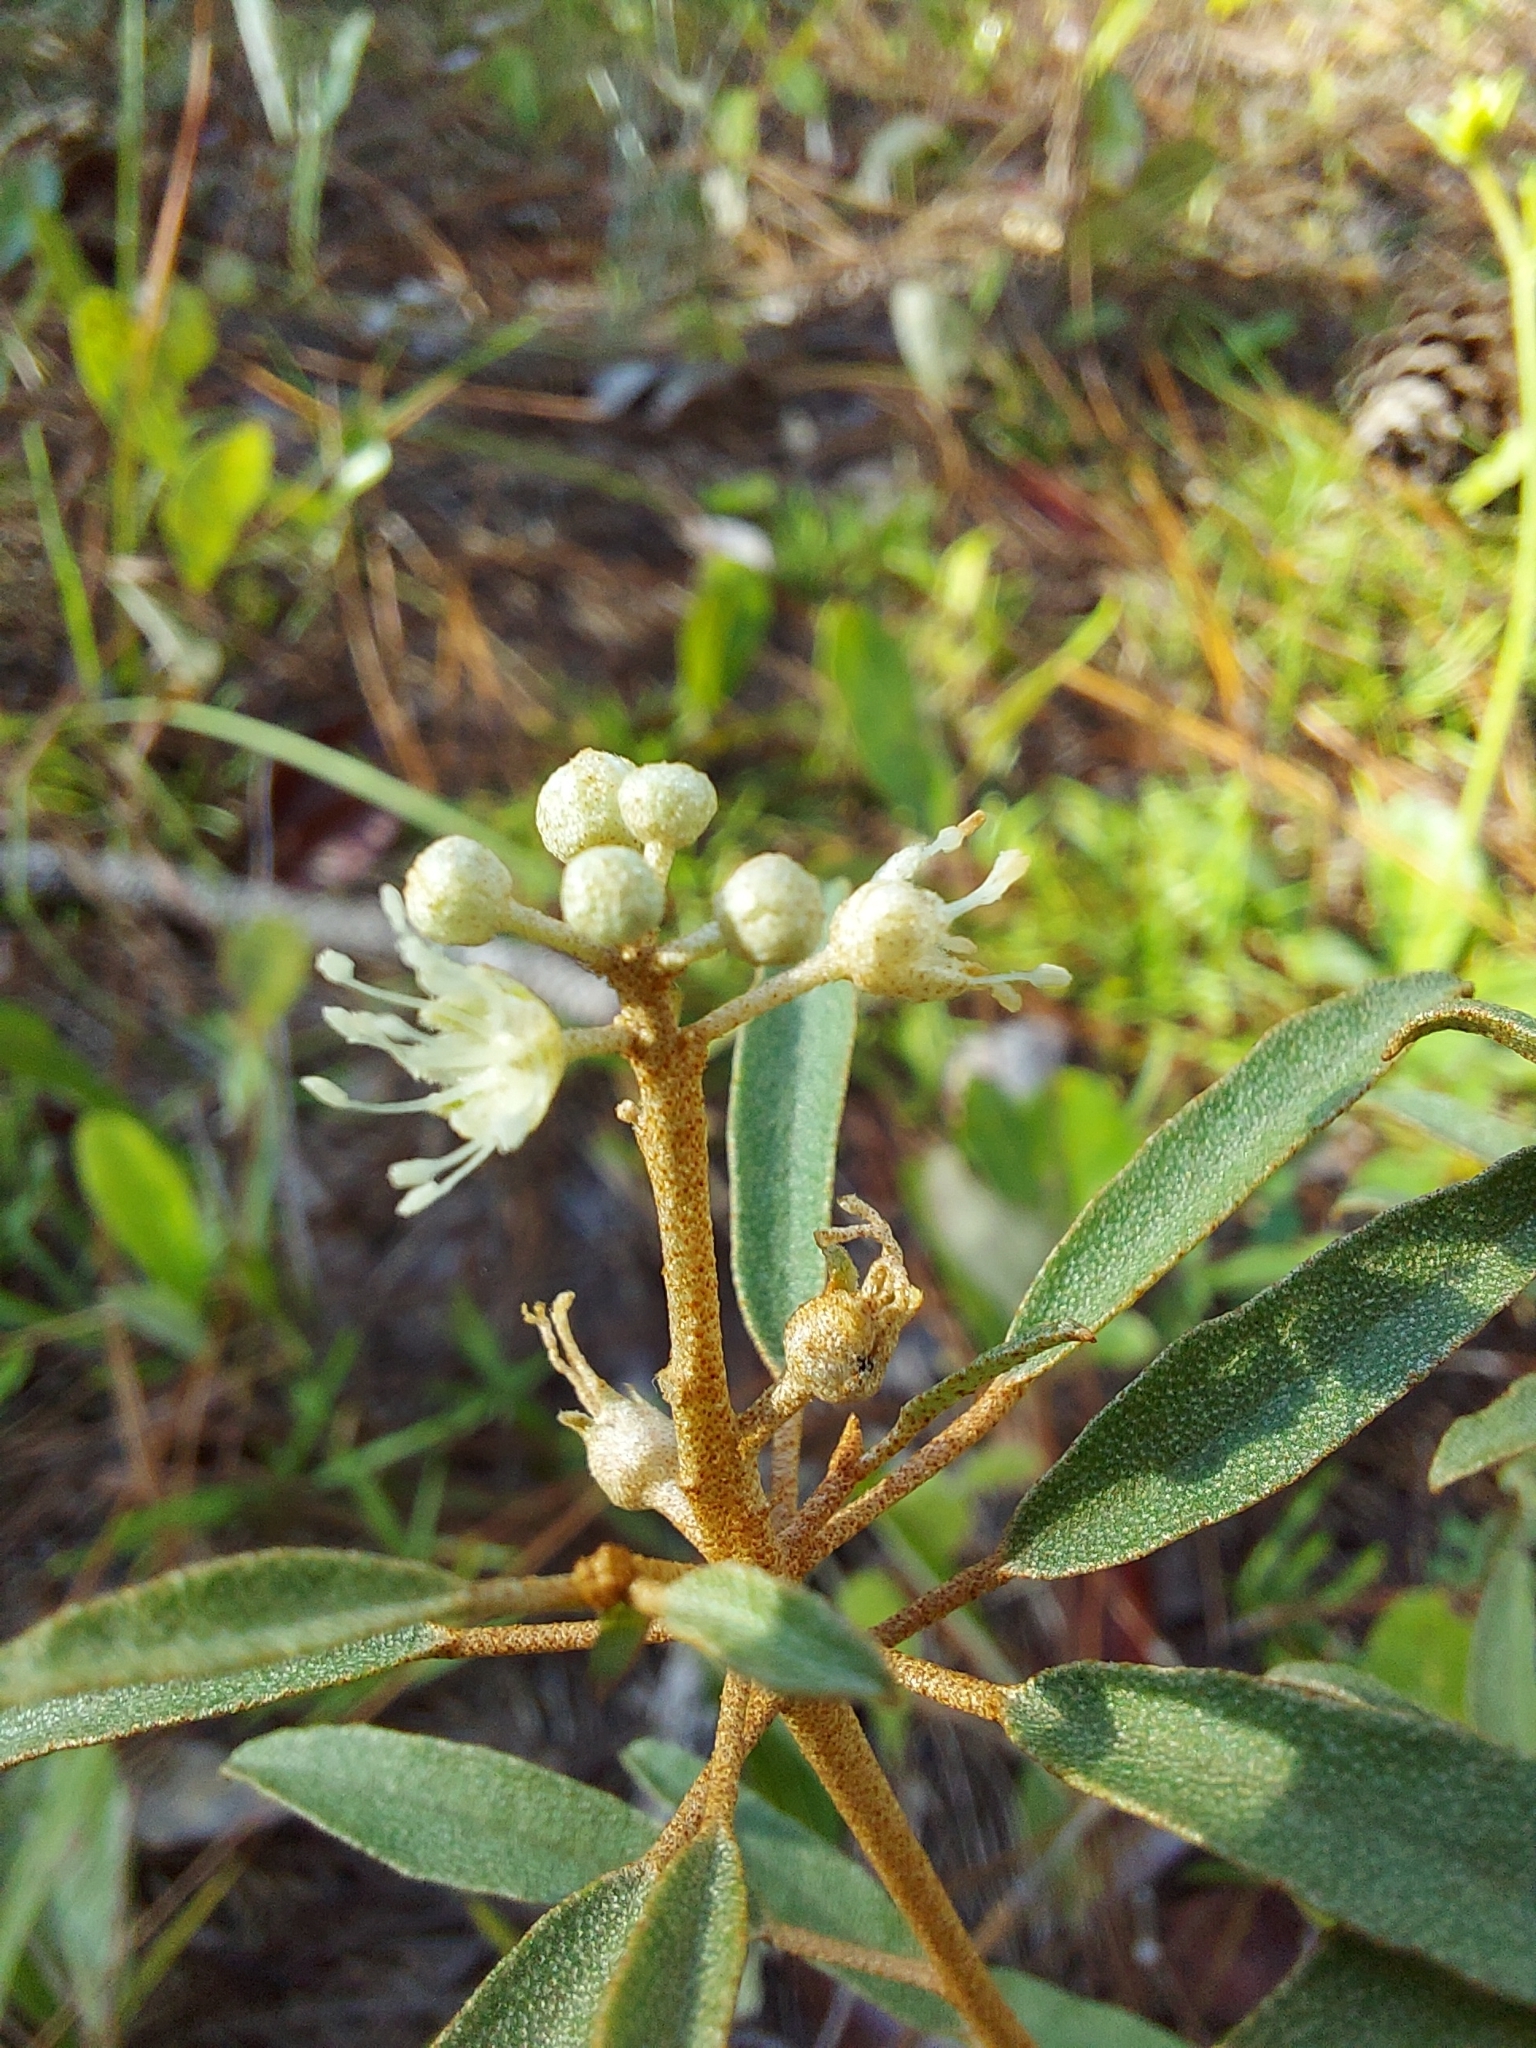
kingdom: Plantae
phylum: Tracheophyta
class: Magnoliopsida
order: Malpighiales
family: Euphorbiaceae
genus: Croton
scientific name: Croton argyranthemus
